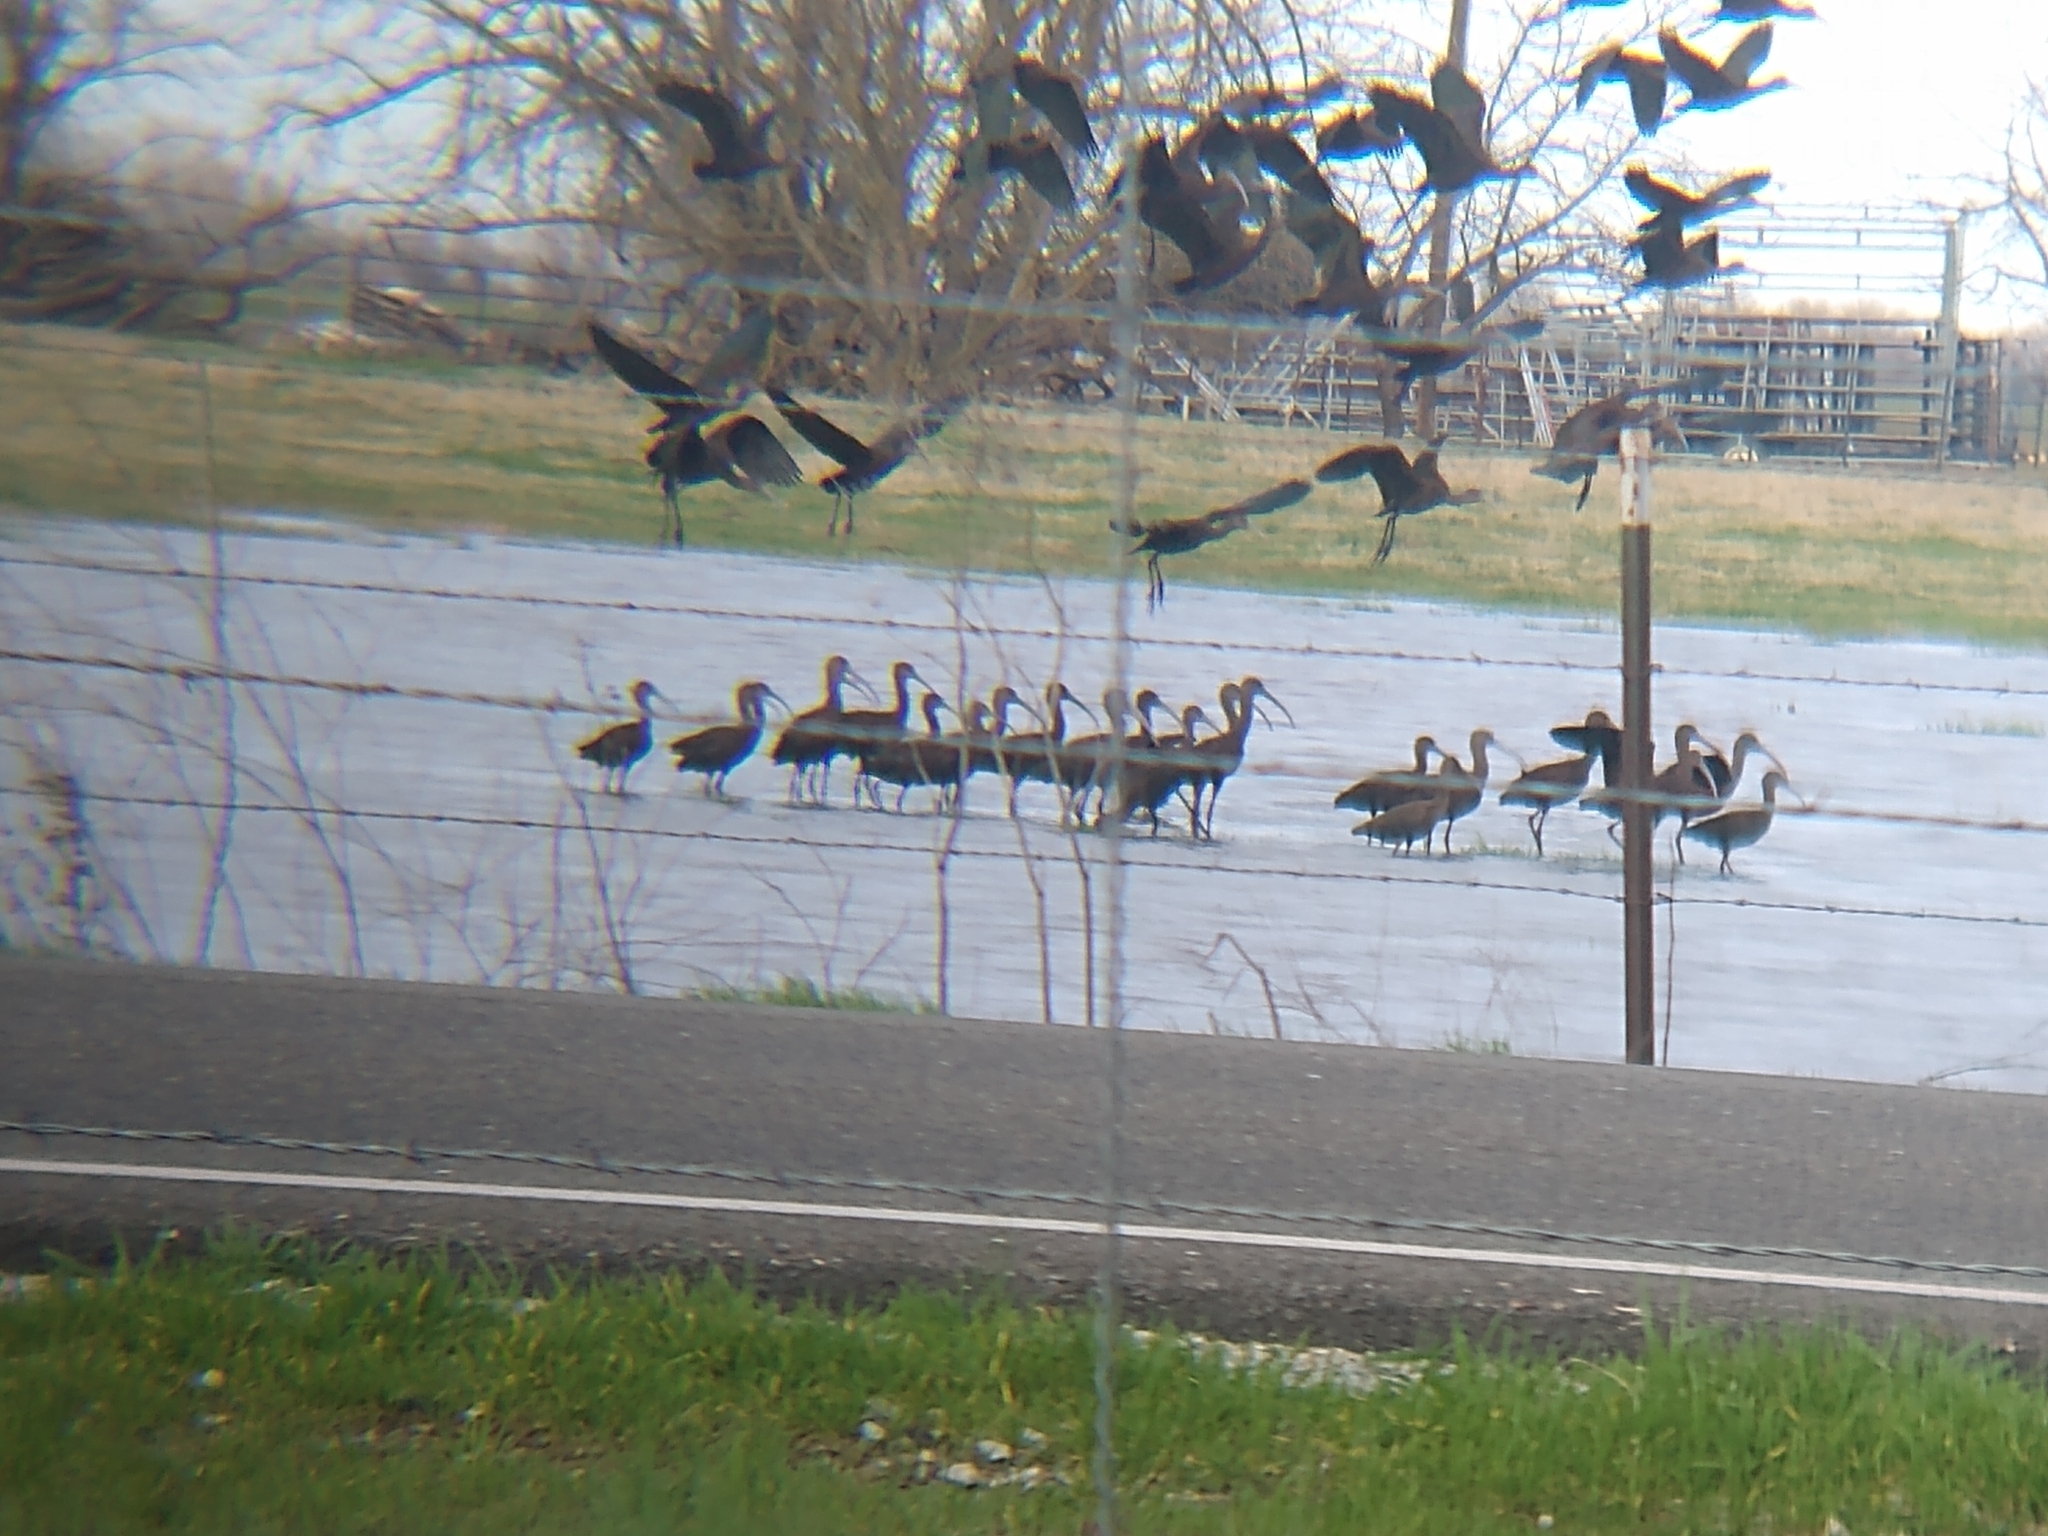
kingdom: Animalia
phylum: Chordata
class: Aves
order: Pelecaniformes
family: Threskiornithidae
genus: Plegadis
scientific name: Plegadis chihi
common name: White-faced ibis
